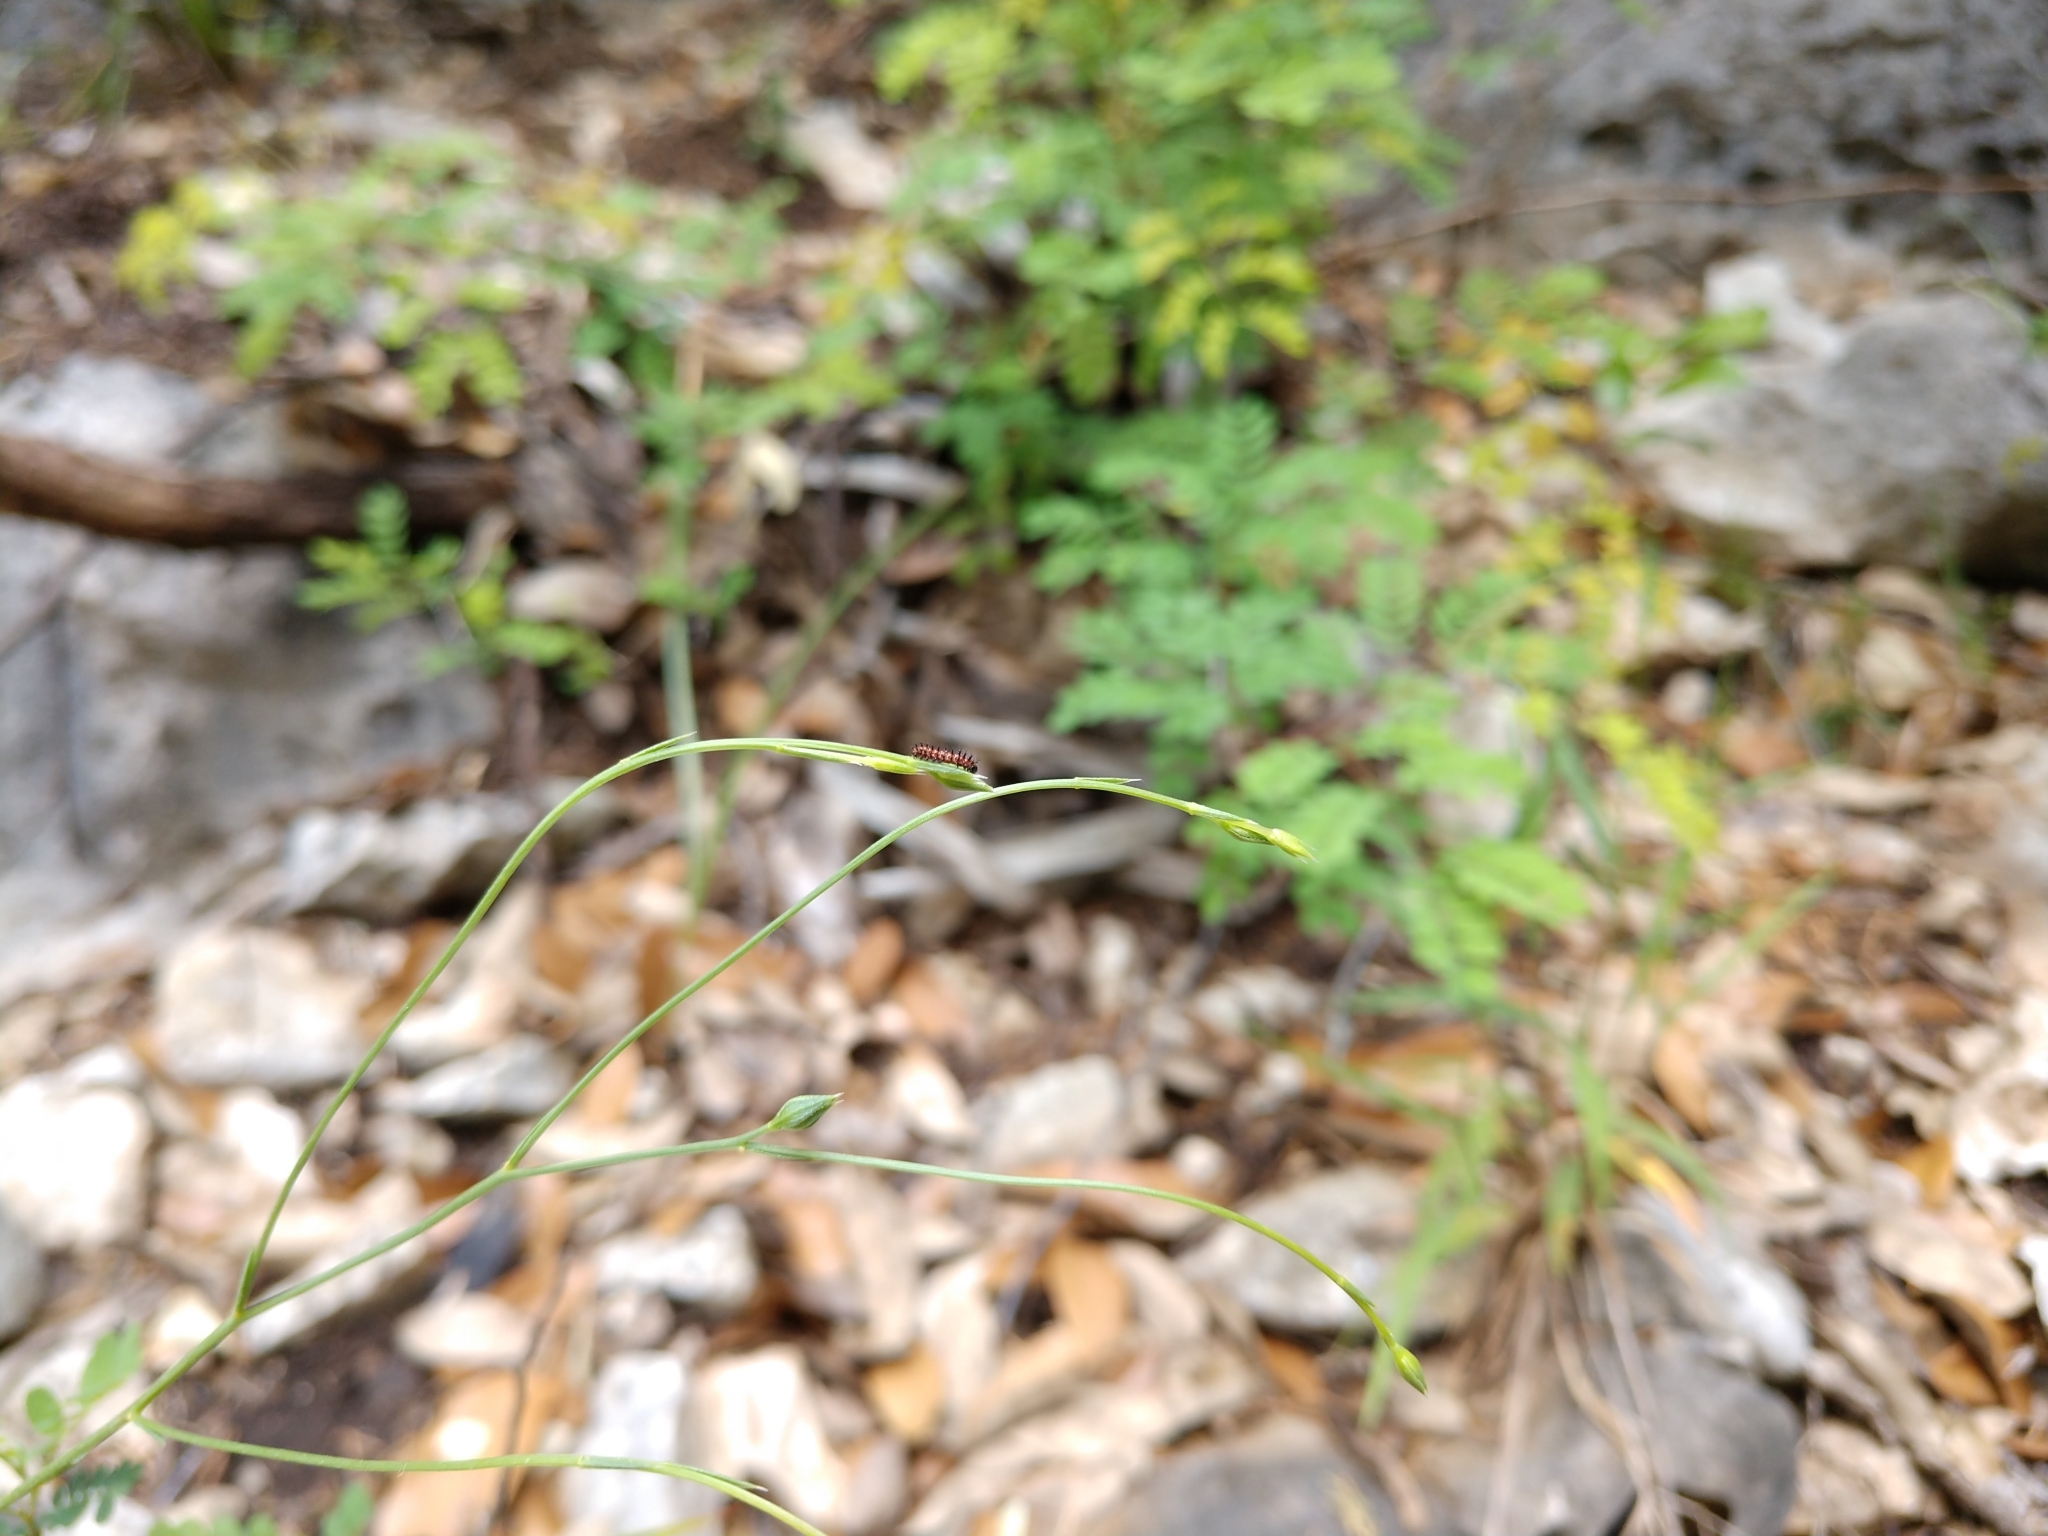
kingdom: Animalia
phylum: Arthropoda
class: Insecta
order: Lepidoptera
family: Nymphalidae
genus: Euptoieta
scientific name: Euptoieta claudia
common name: Variegated fritillary
